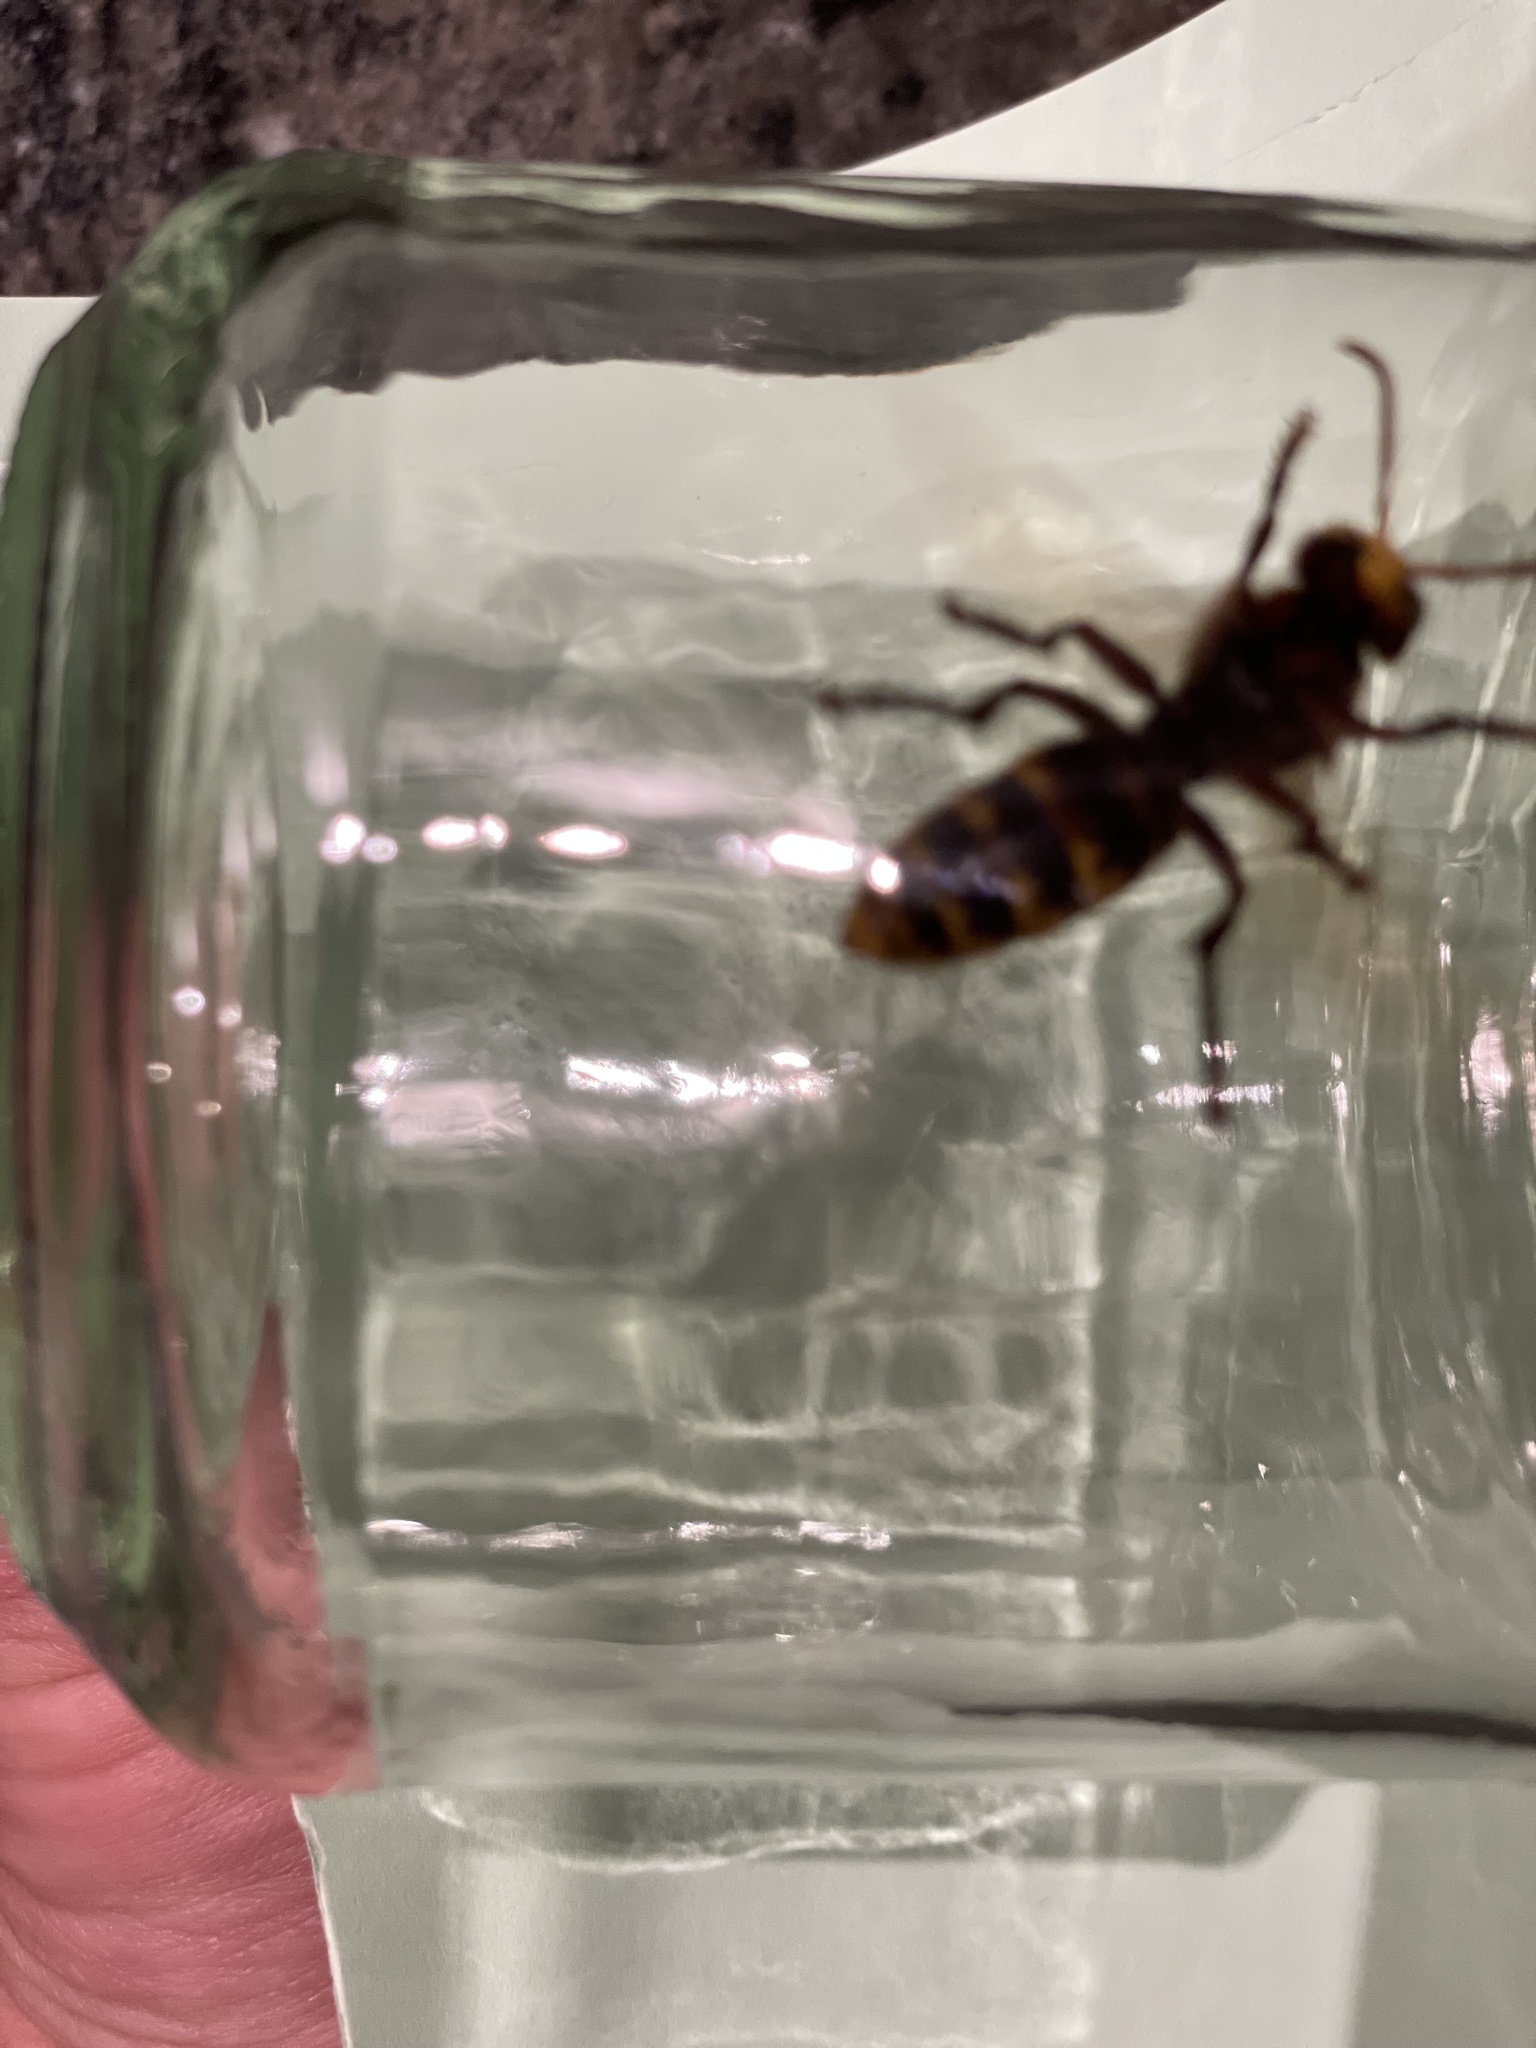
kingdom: Animalia
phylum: Arthropoda
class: Insecta
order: Hymenoptera
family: Vespidae
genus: Vespa
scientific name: Vespa crabro
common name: Hornet
